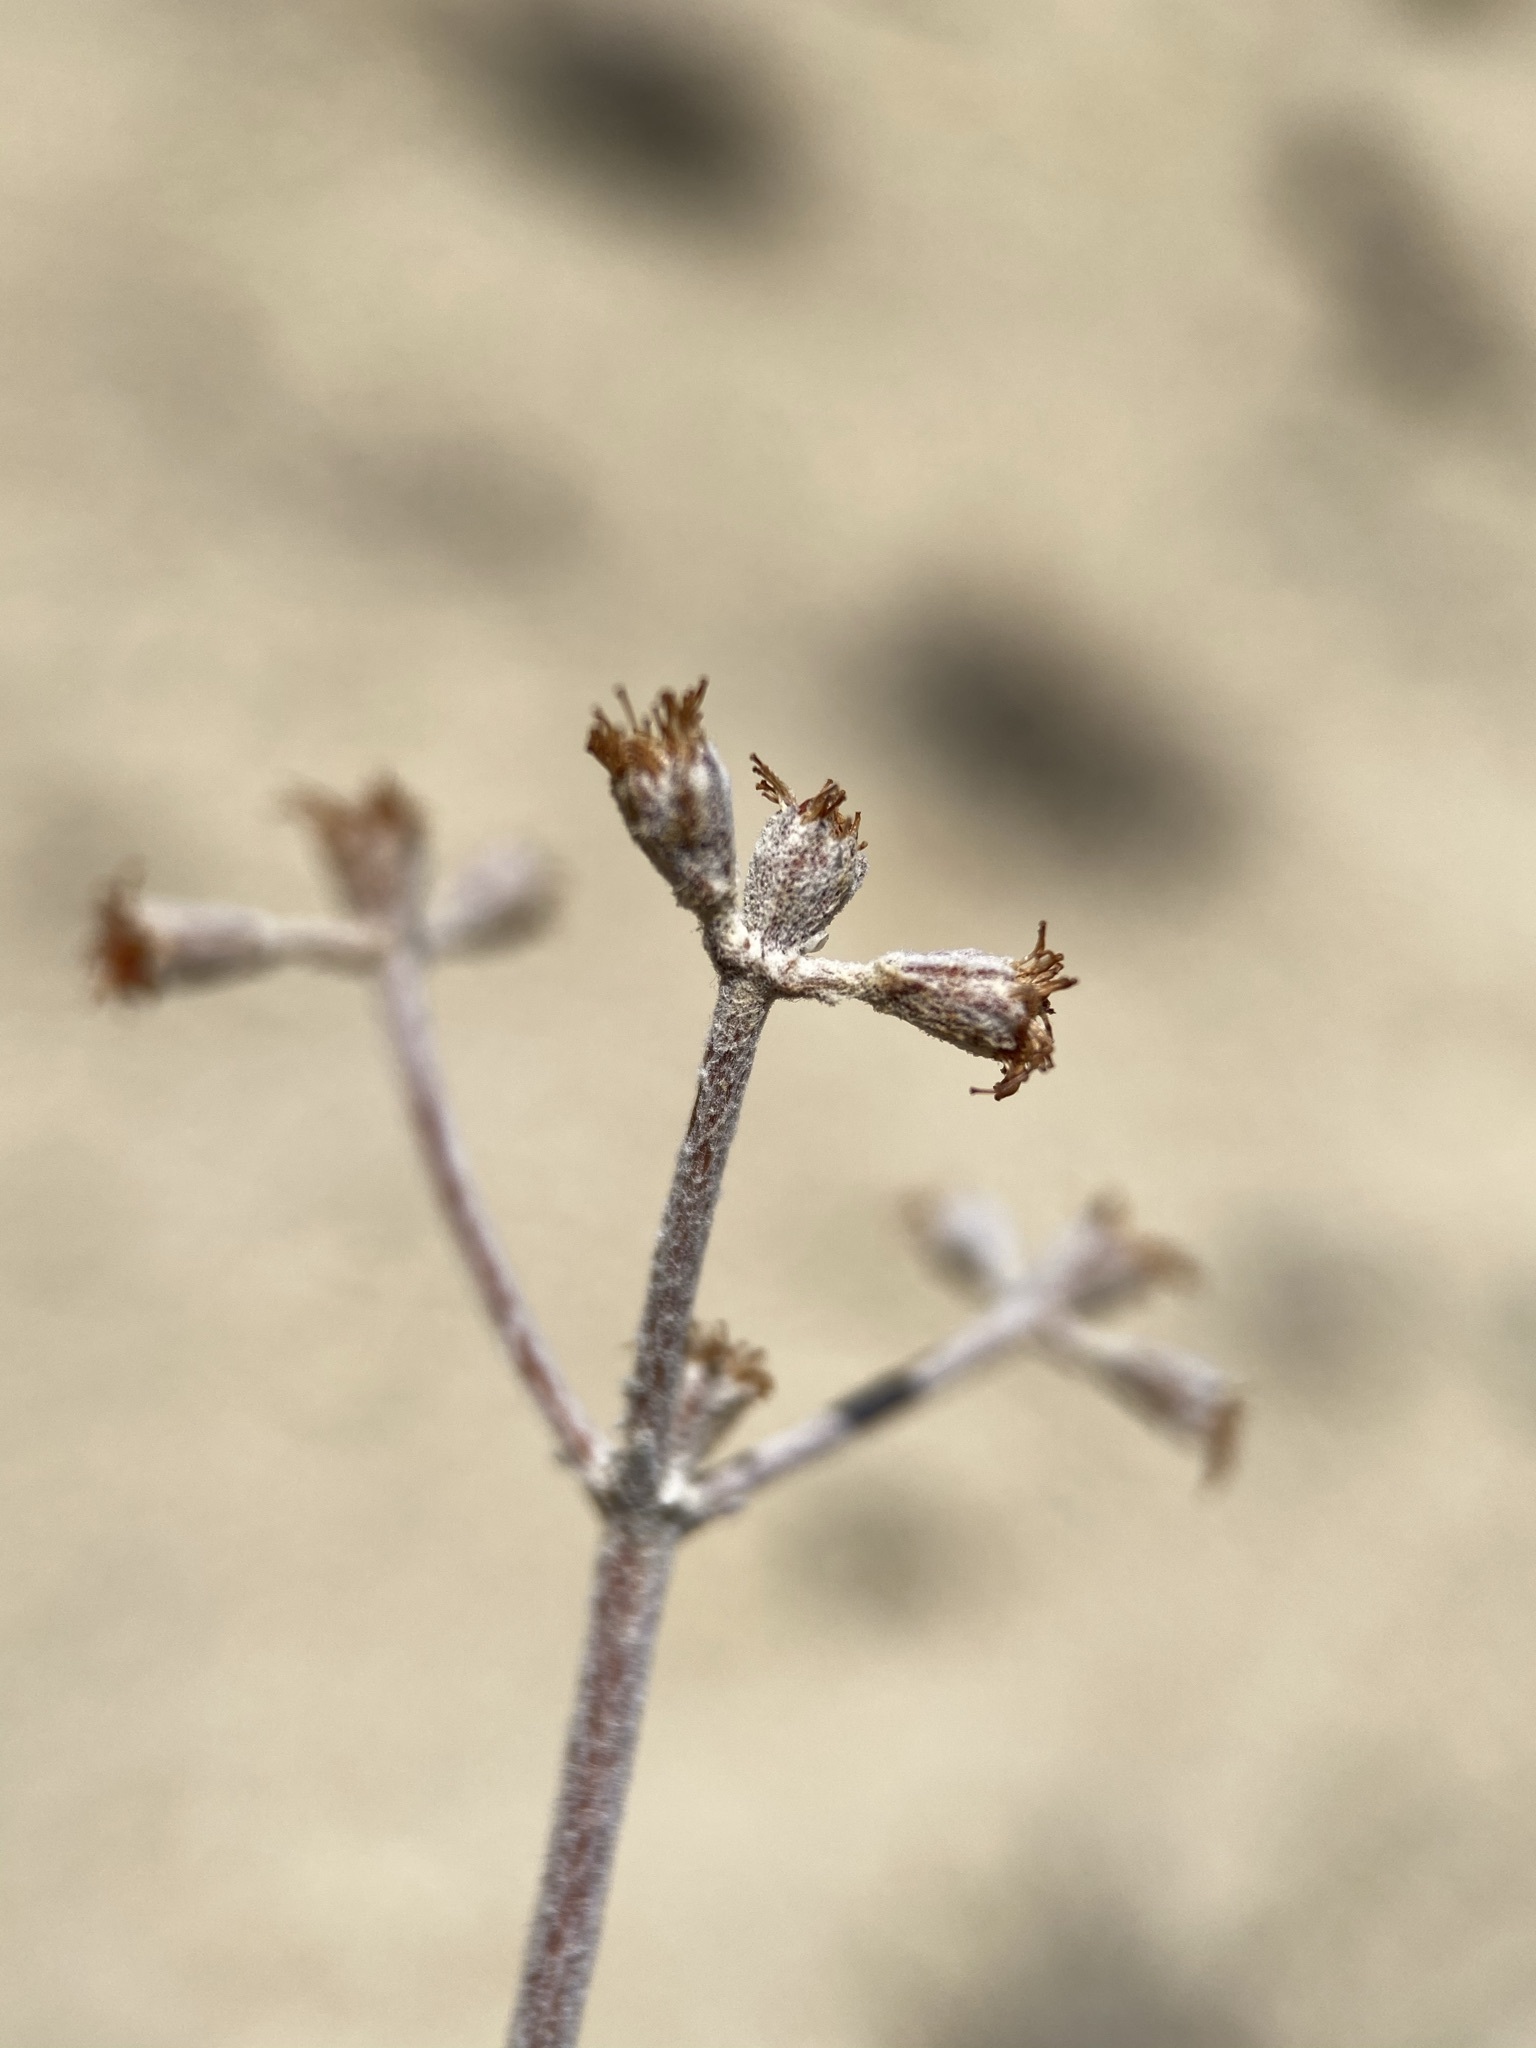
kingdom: Plantae
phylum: Tracheophyta
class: Magnoliopsida
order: Caryophyllales
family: Polygonaceae
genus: Eriogonum
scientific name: Eriogonum strictum
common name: Blue mountain buckwheat
